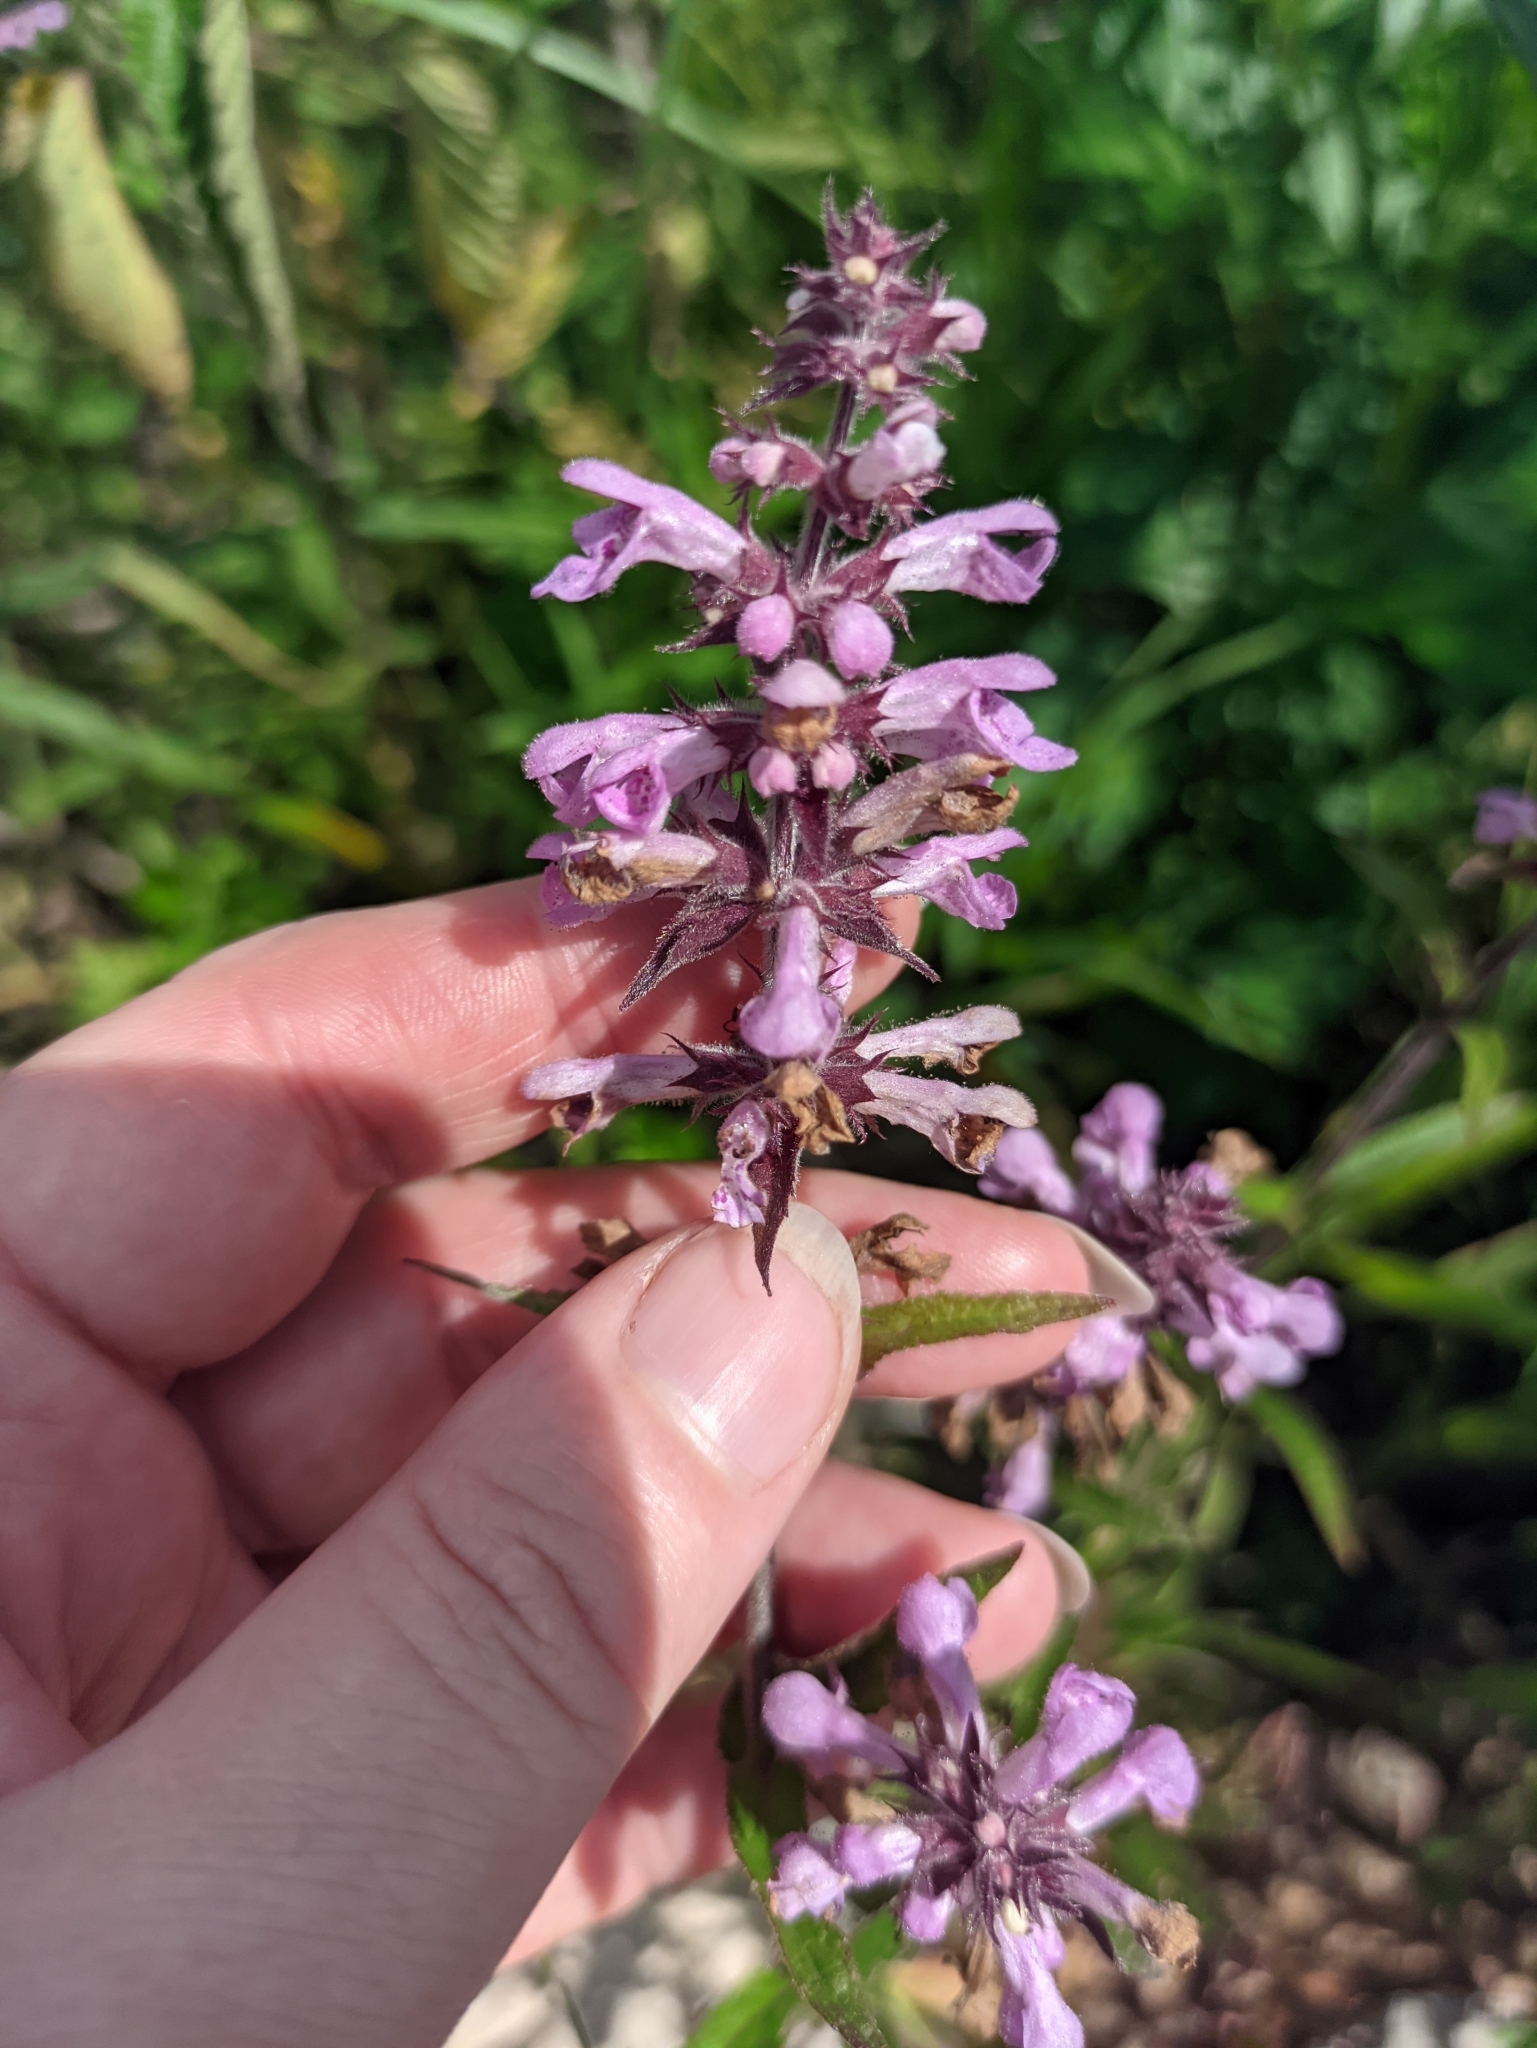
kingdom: Plantae
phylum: Tracheophyta
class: Magnoliopsida
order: Lamiales
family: Lamiaceae
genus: Stachys
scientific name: Stachys palustris
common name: Marsh woundwort
